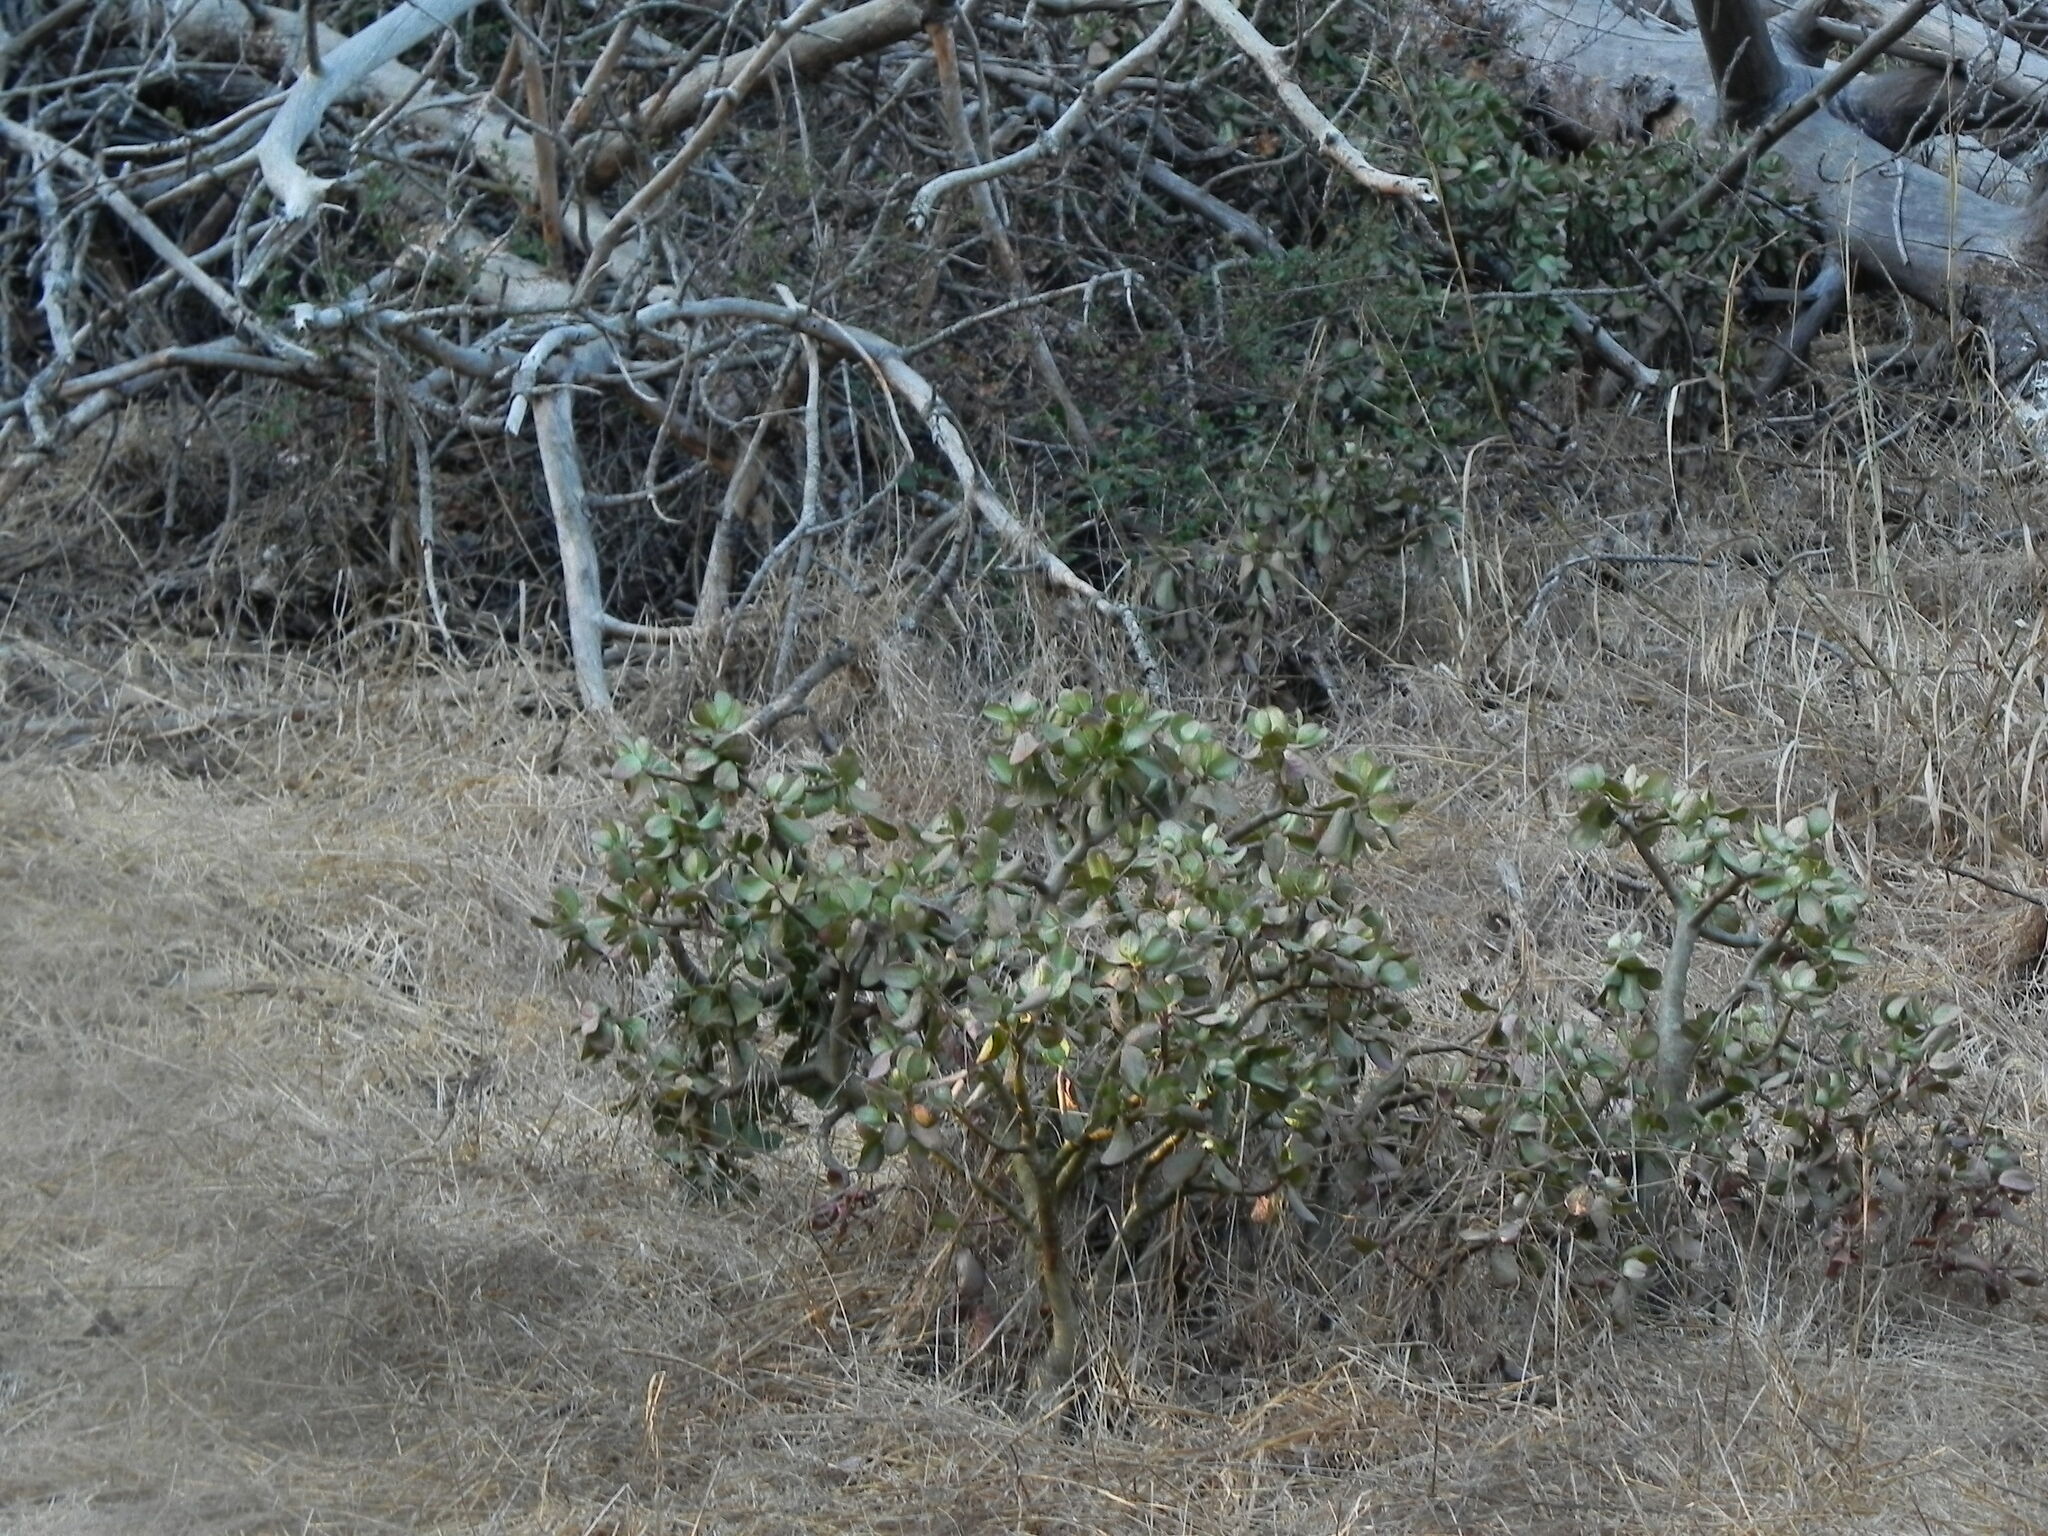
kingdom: Plantae
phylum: Tracheophyta
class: Magnoliopsida
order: Saxifragales
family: Crassulaceae
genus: Crassula
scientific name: Crassula ovata
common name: Jade plant
